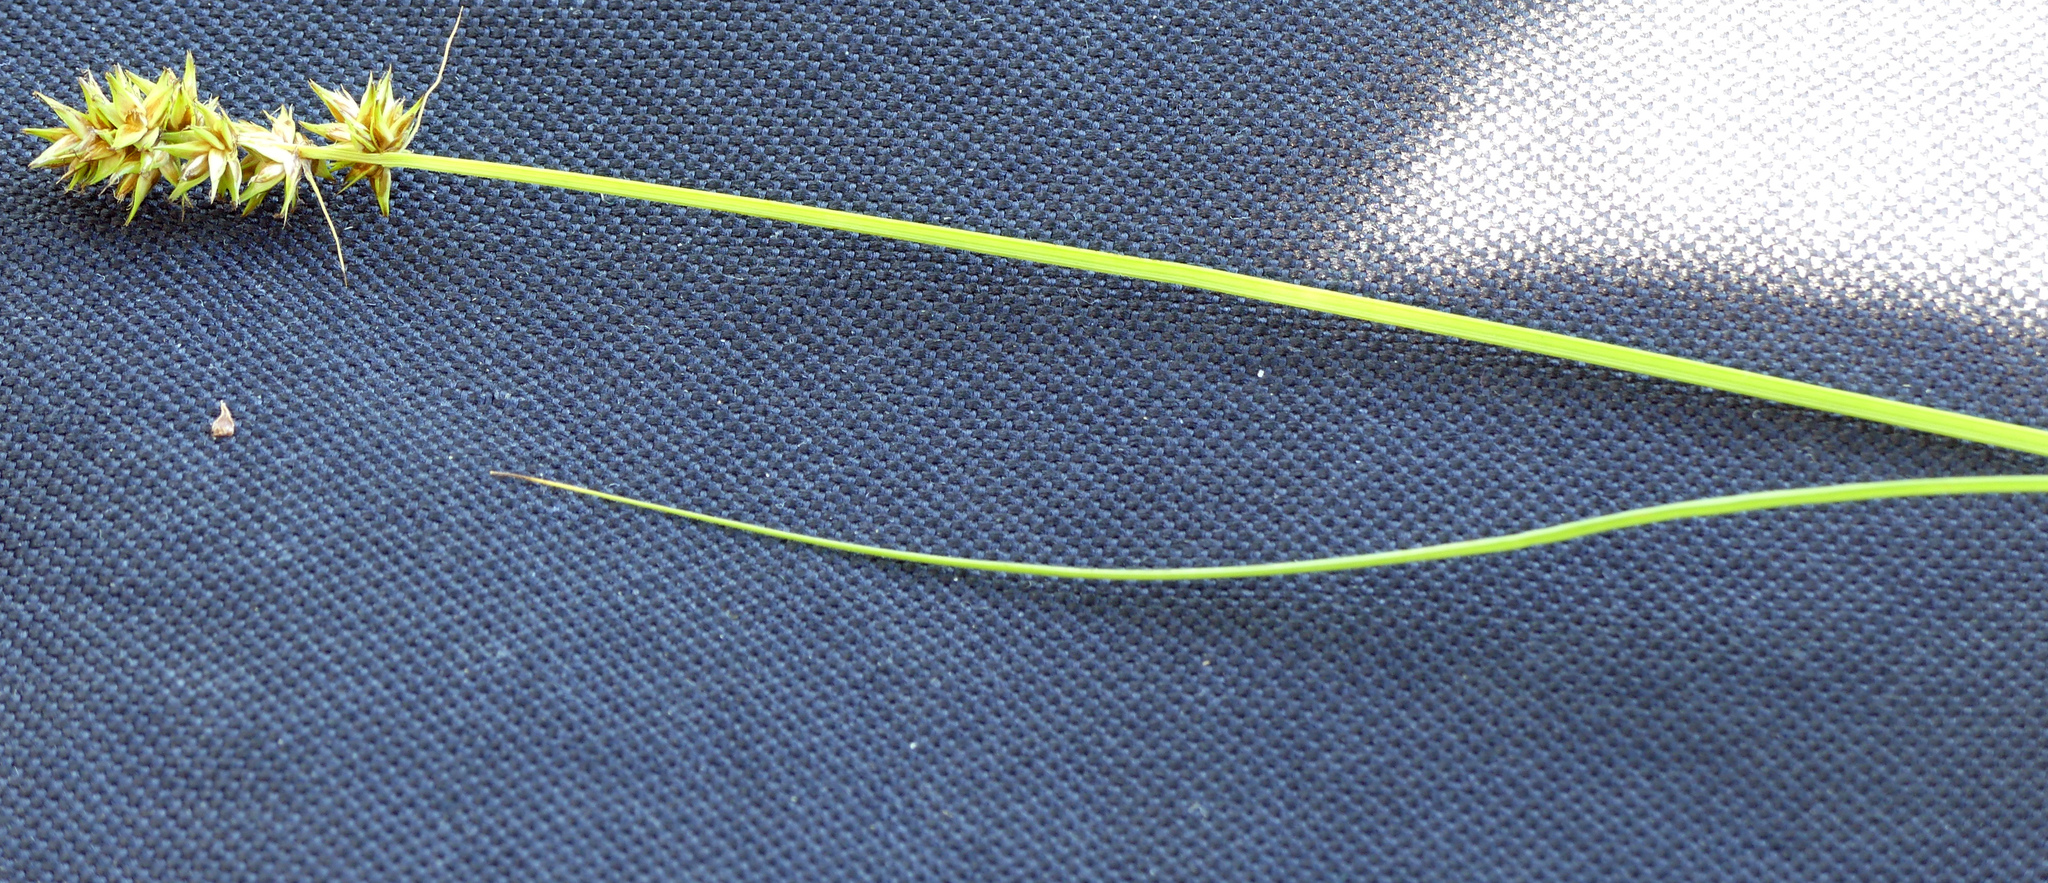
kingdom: Plantae
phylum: Tracheophyta
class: Liliopsida
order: Poales
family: Cyperaceae
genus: Carex
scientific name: Carex otrubae
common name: False fox-sedge
